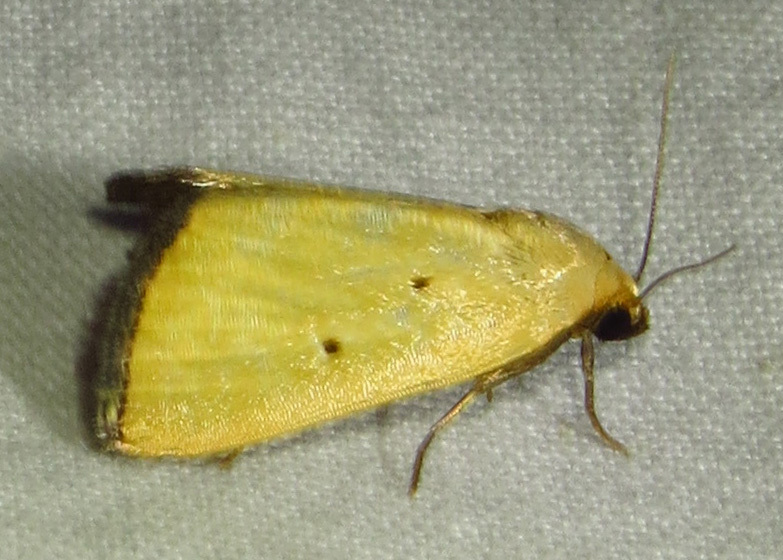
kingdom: Animalia
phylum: Arthropoda
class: Insecta
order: Lepidoptera
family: Noctuidae
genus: Marimatha
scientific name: Marimatha nigrofimbria
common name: Black-bordered lemon moth
